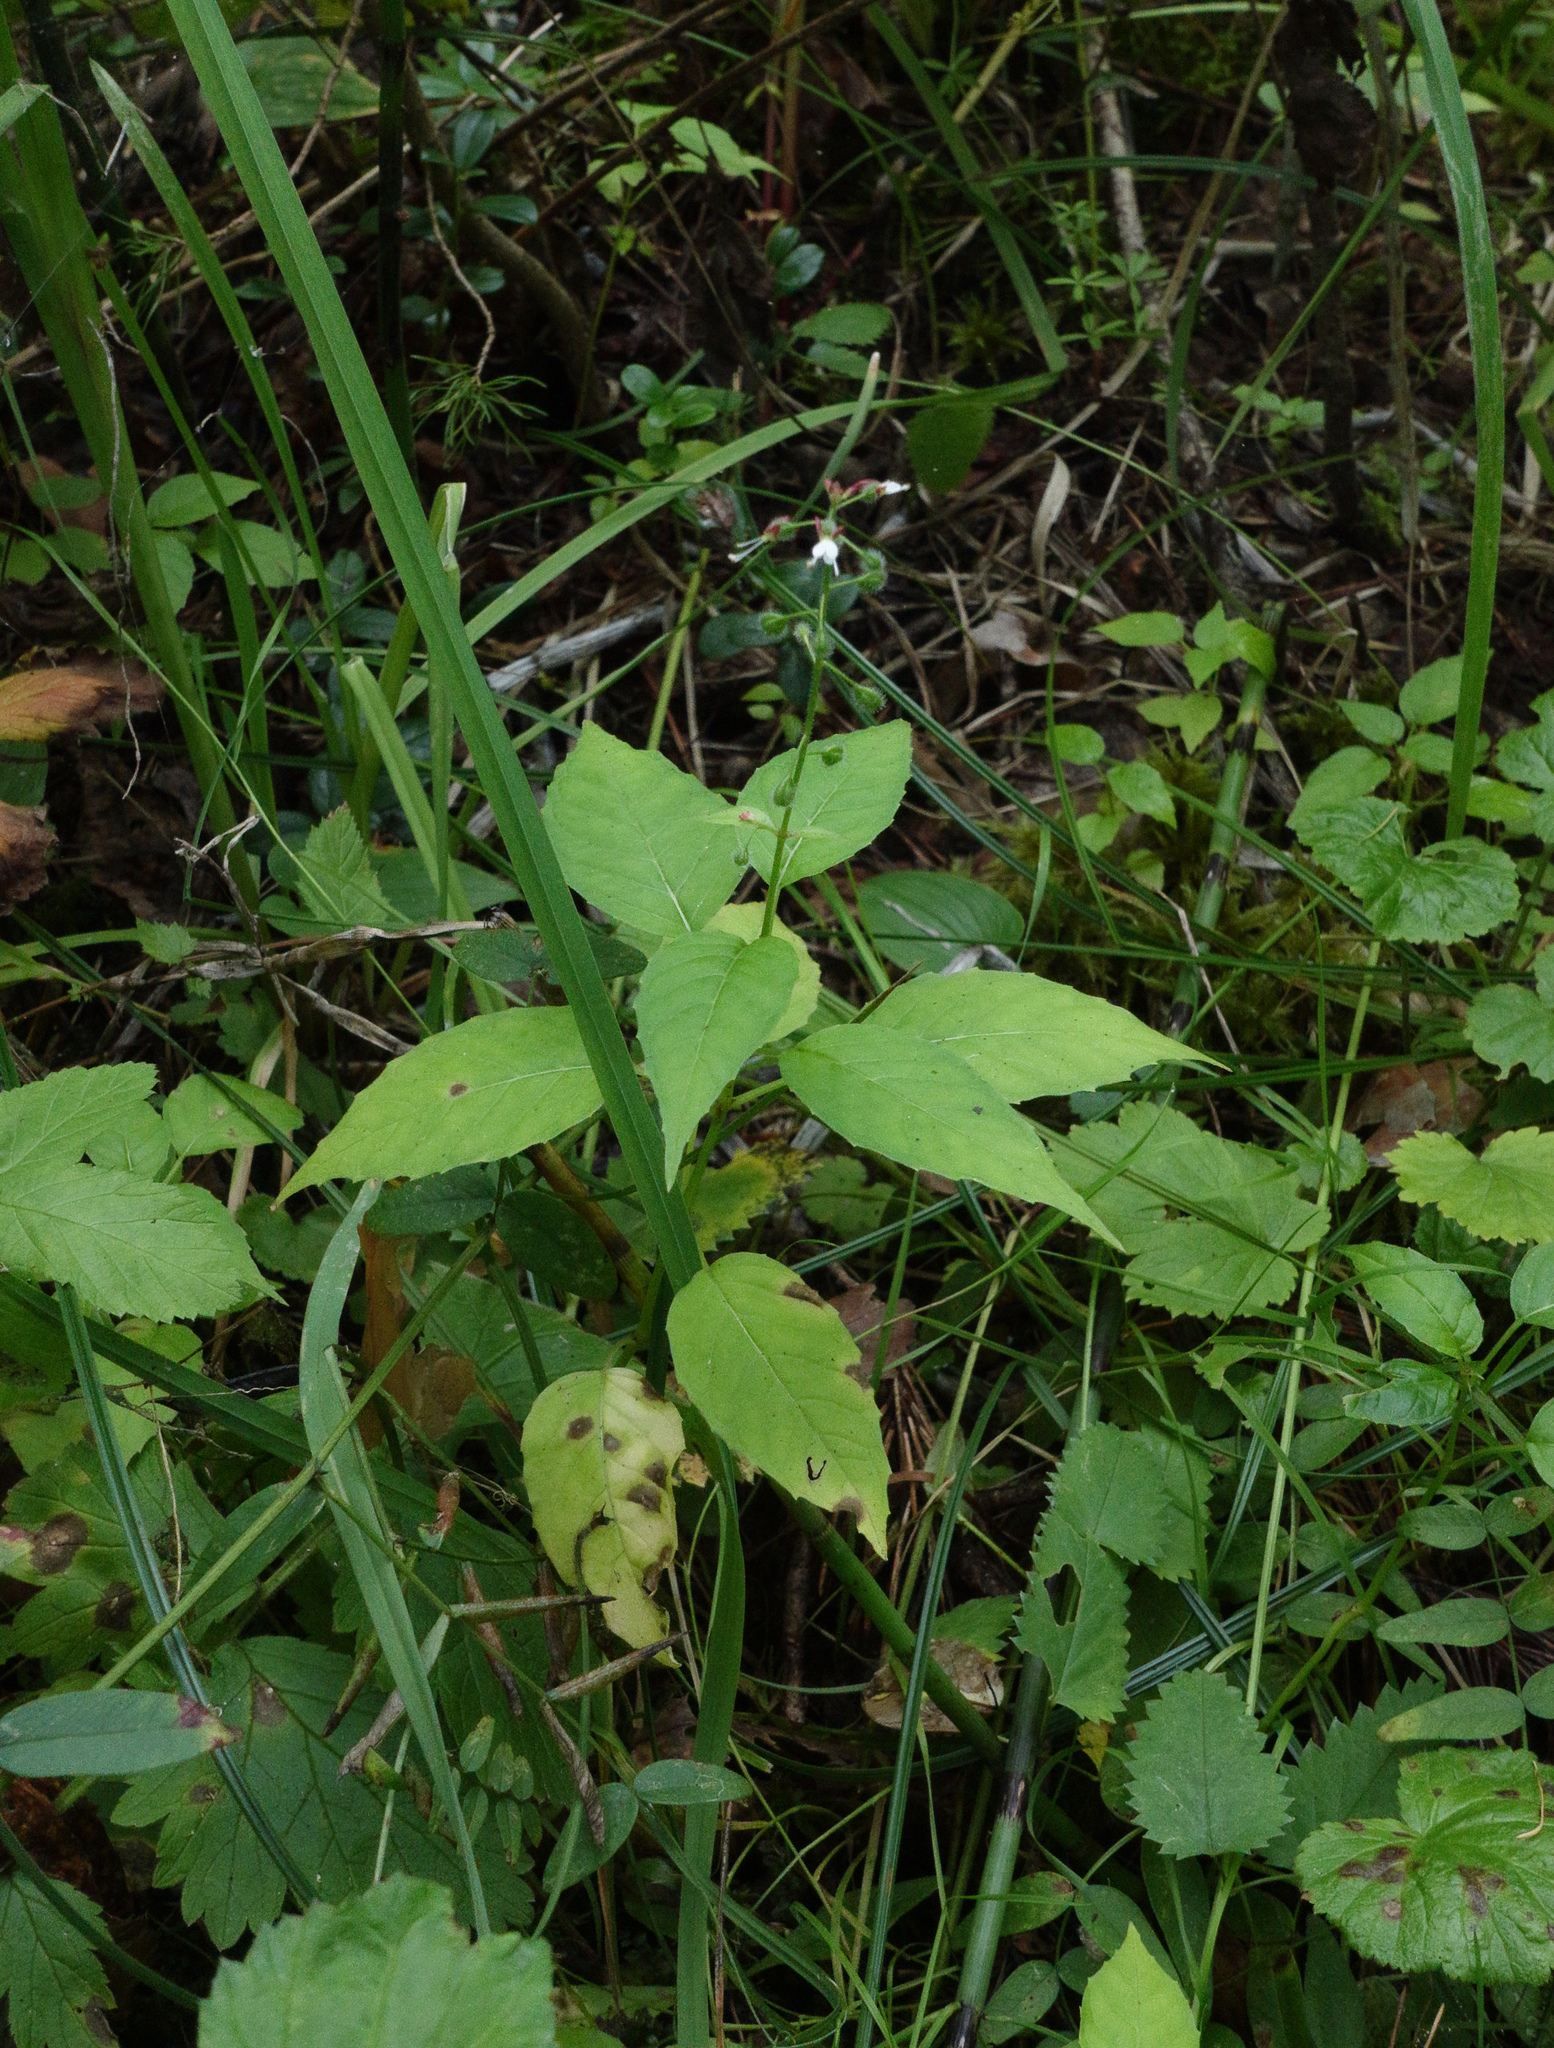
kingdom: Plantae
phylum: Tracheophyta
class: Magnoliopsida
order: Myrtales
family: Onagraceae
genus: Circaea
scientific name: Circaea lutetiana
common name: Enchanter's-nightshade
